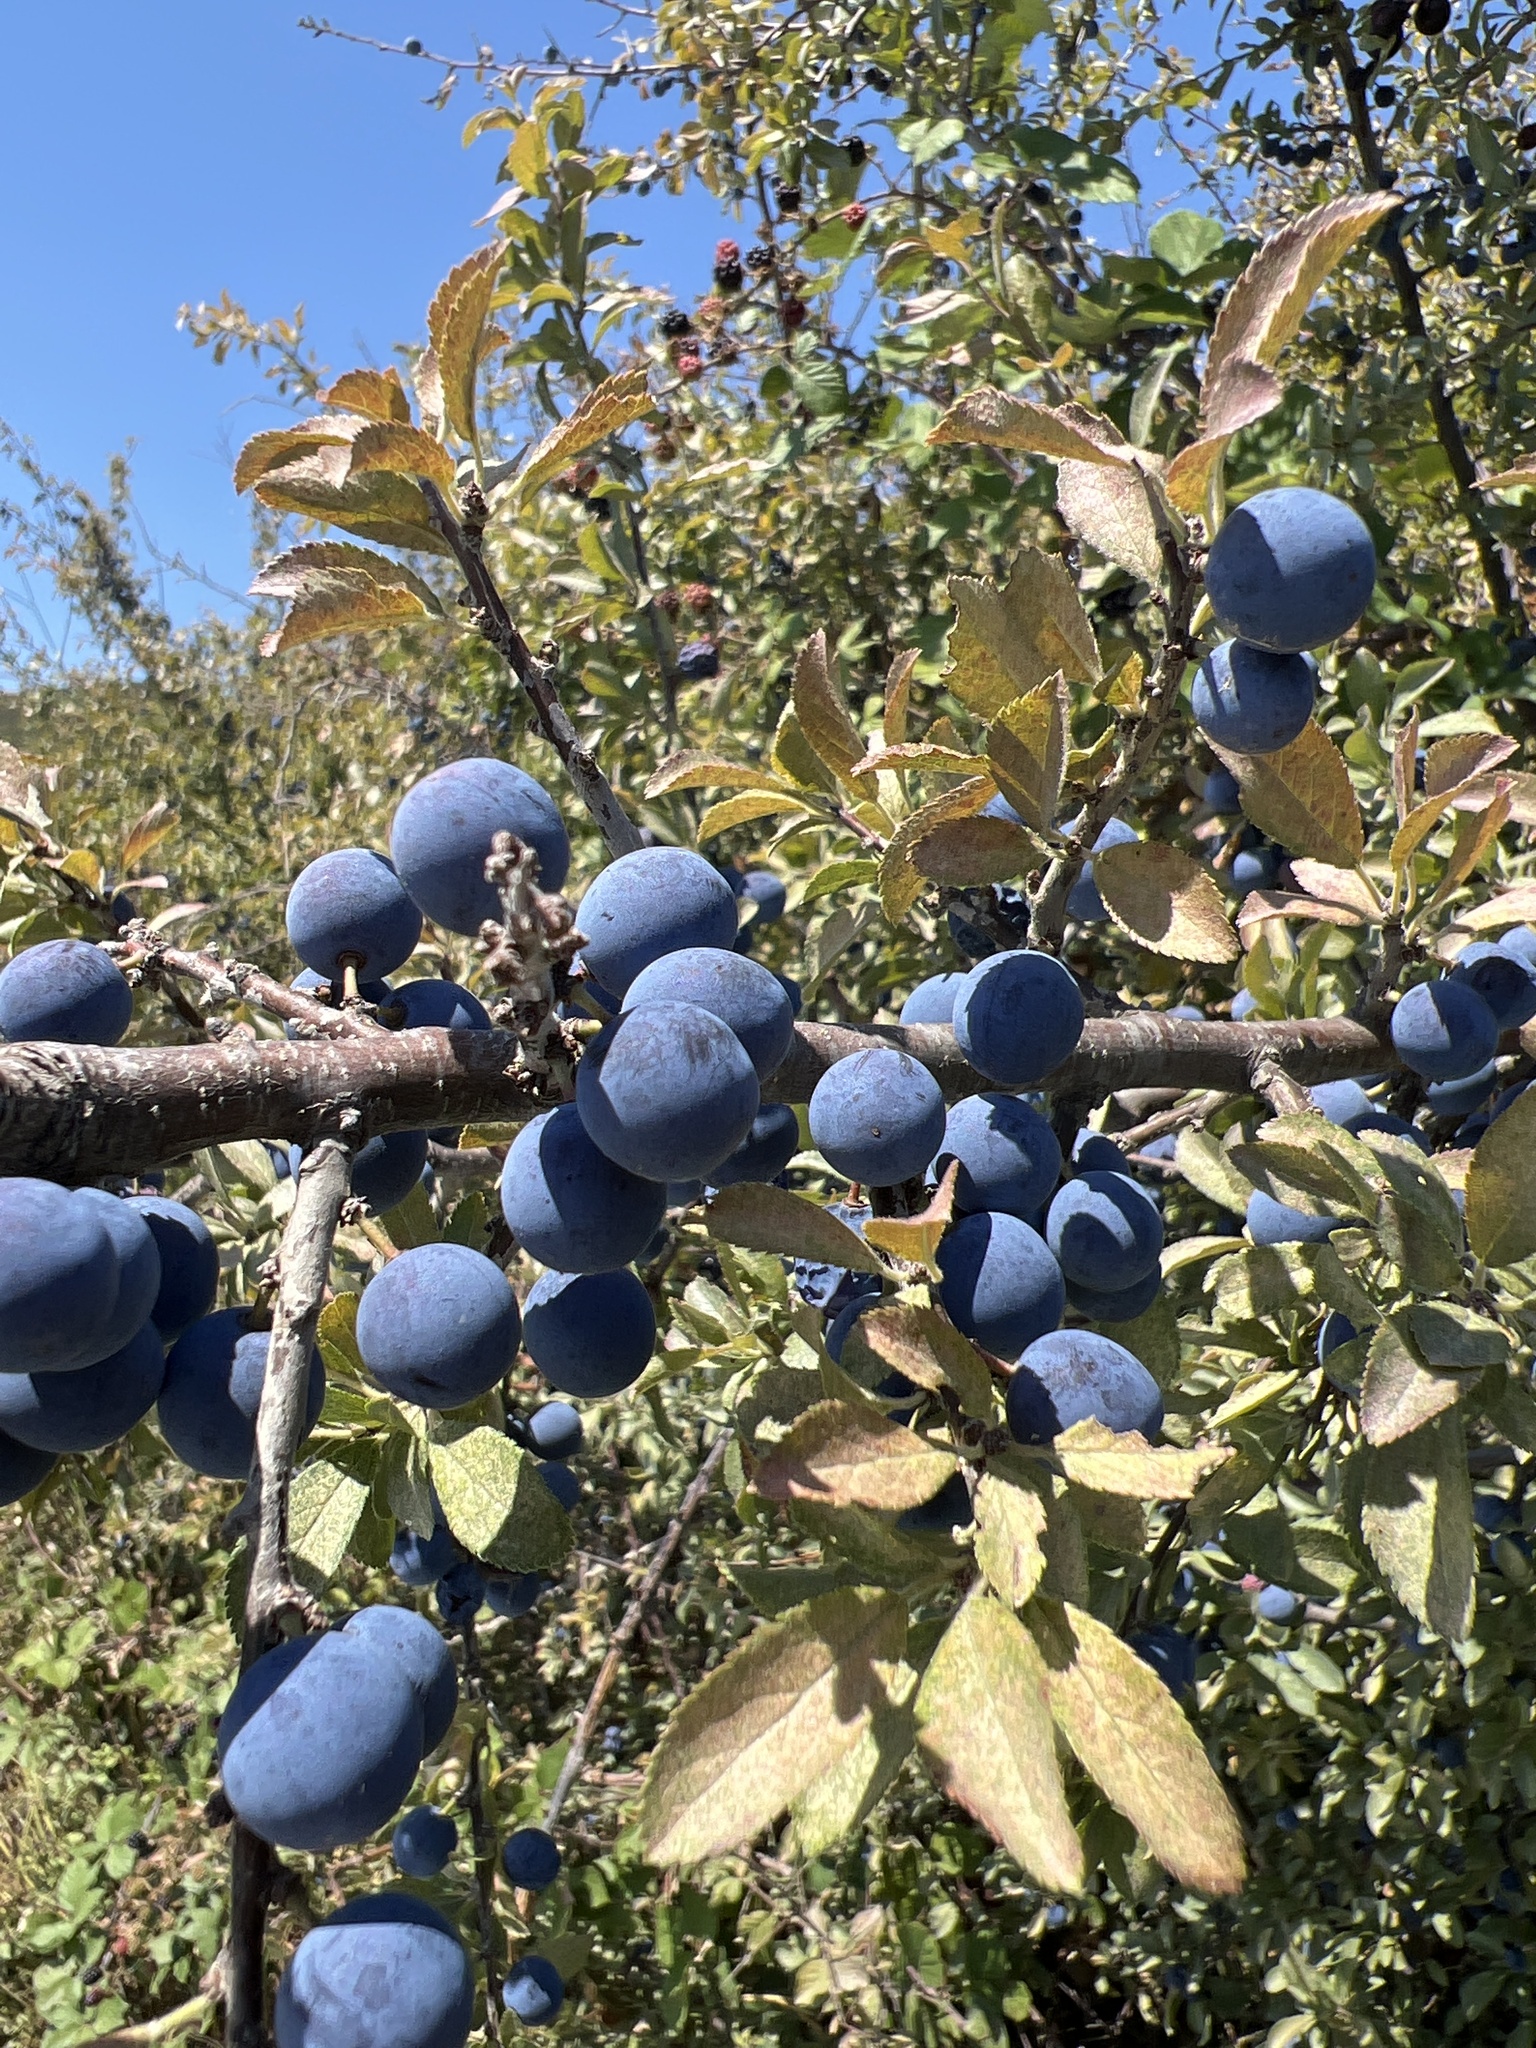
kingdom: Plantae
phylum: Tracheophyta
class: Magnoliopsida
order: Rosales
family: Rosaceae
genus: Prunus
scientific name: Prunus spinosa
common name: Blackthorn
